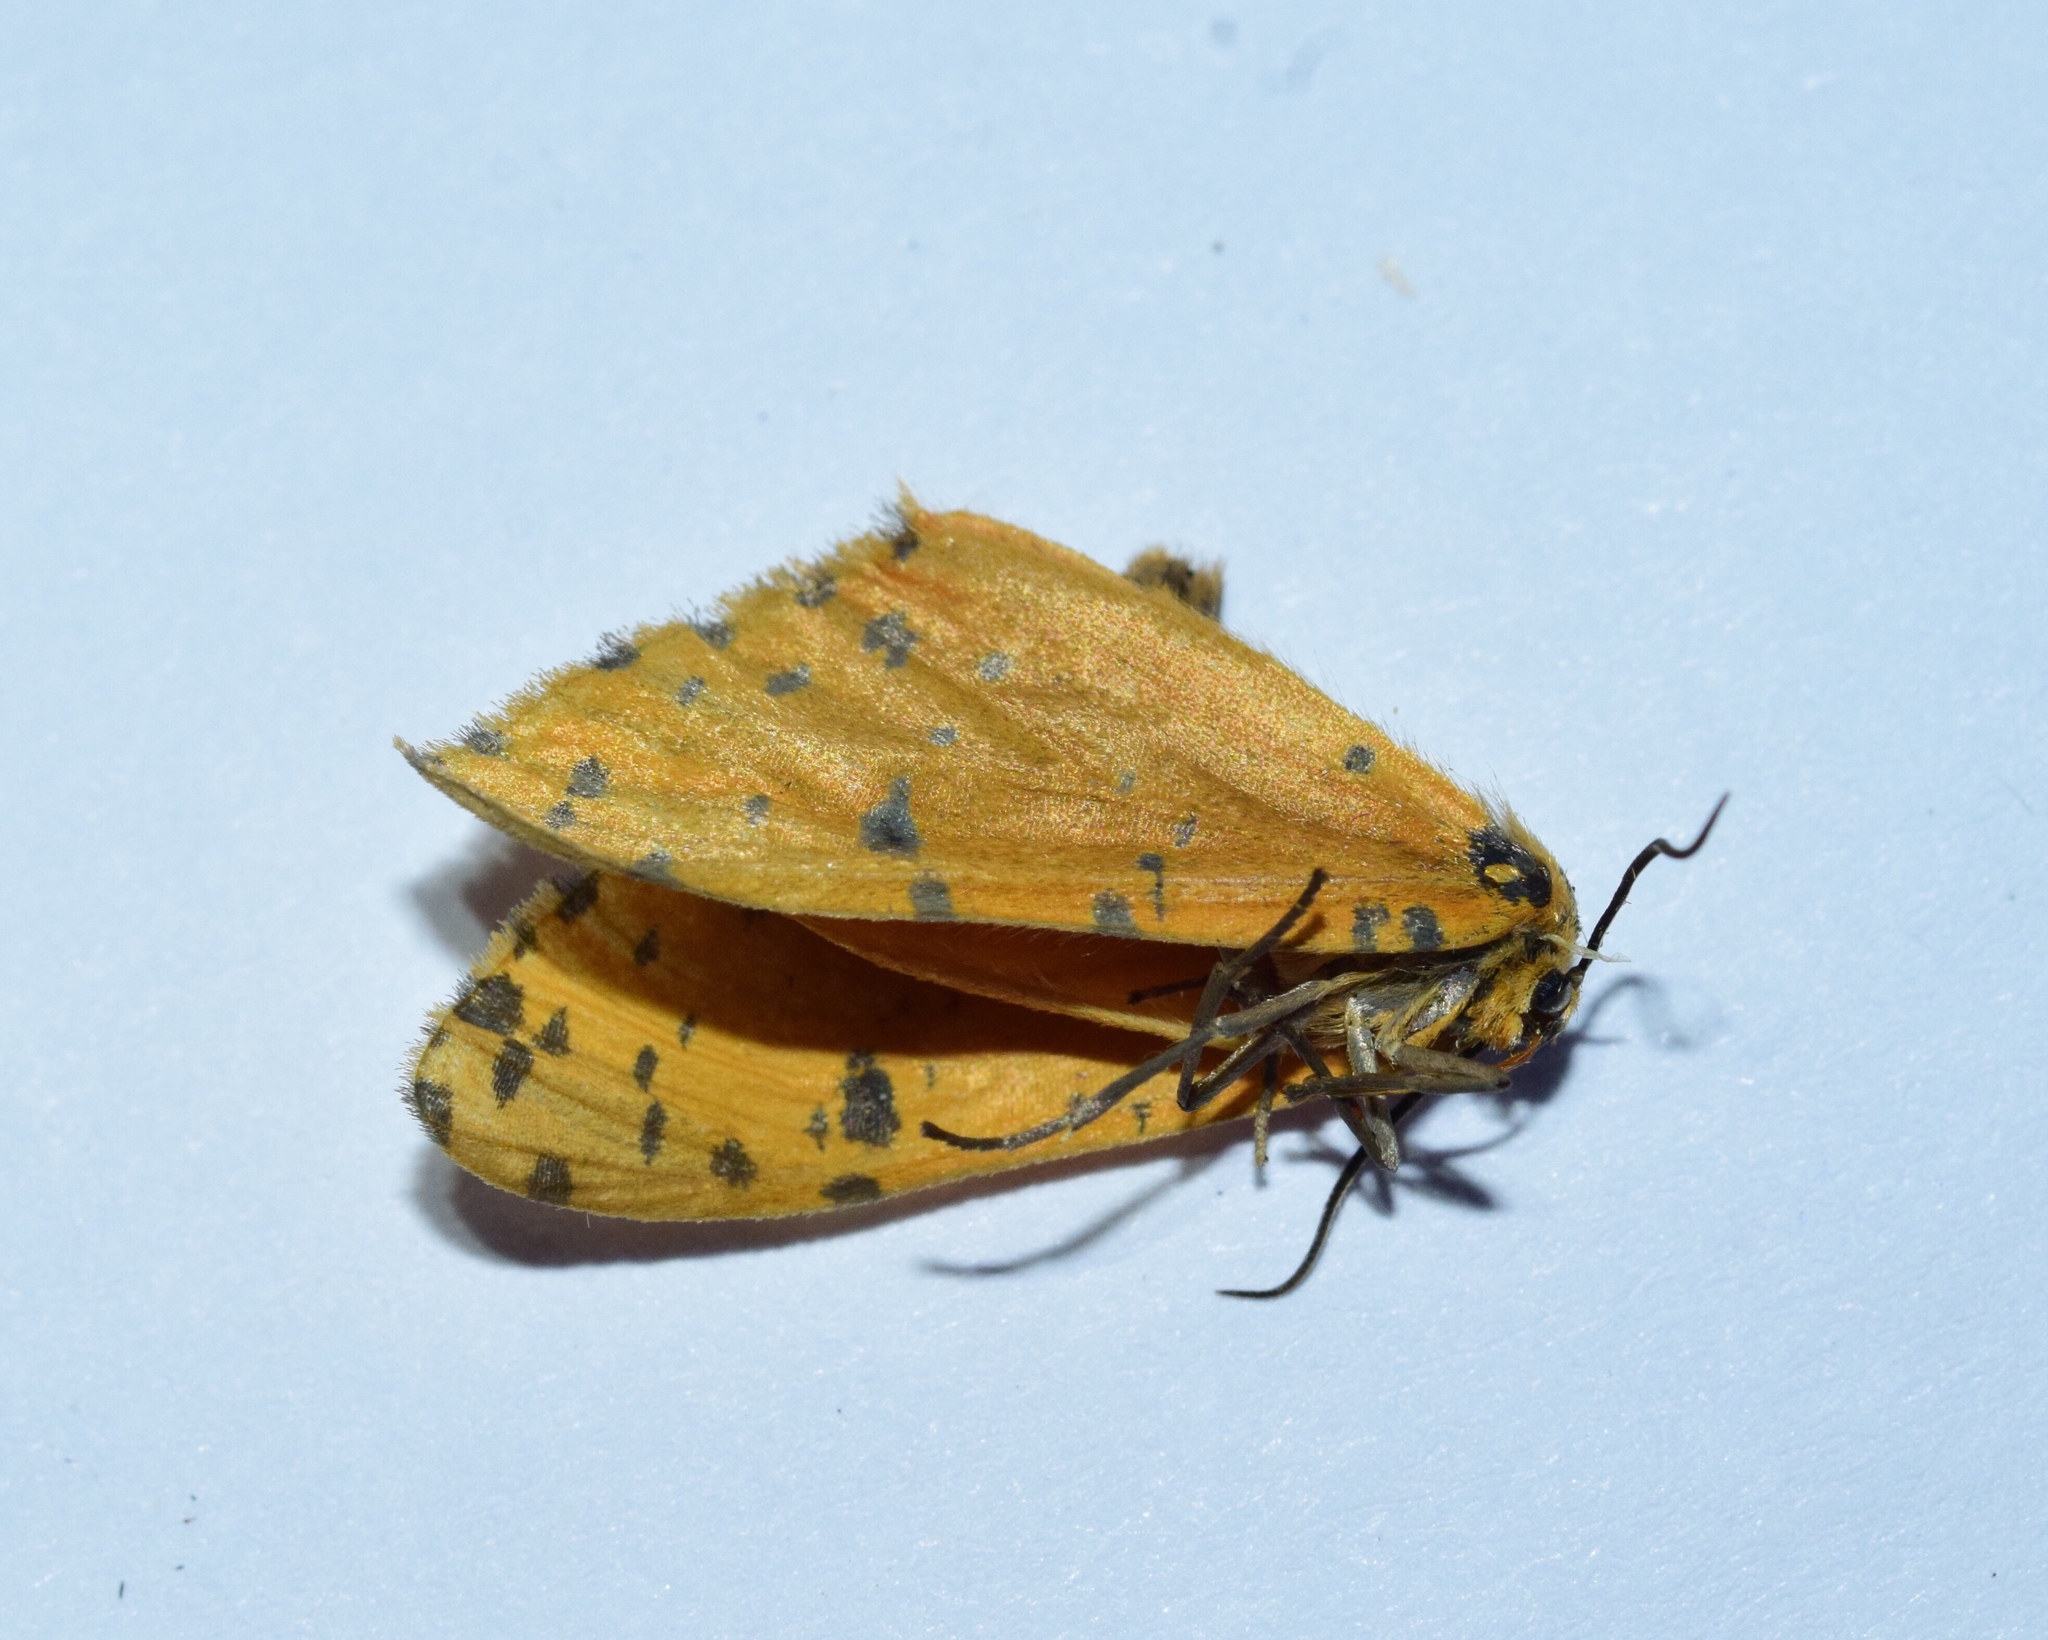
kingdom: Animalia
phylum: Arthropoda
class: Insecta
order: Lepidoptera
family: Geometridae
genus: Zerenopsis
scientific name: Zerenopsis geometrina
